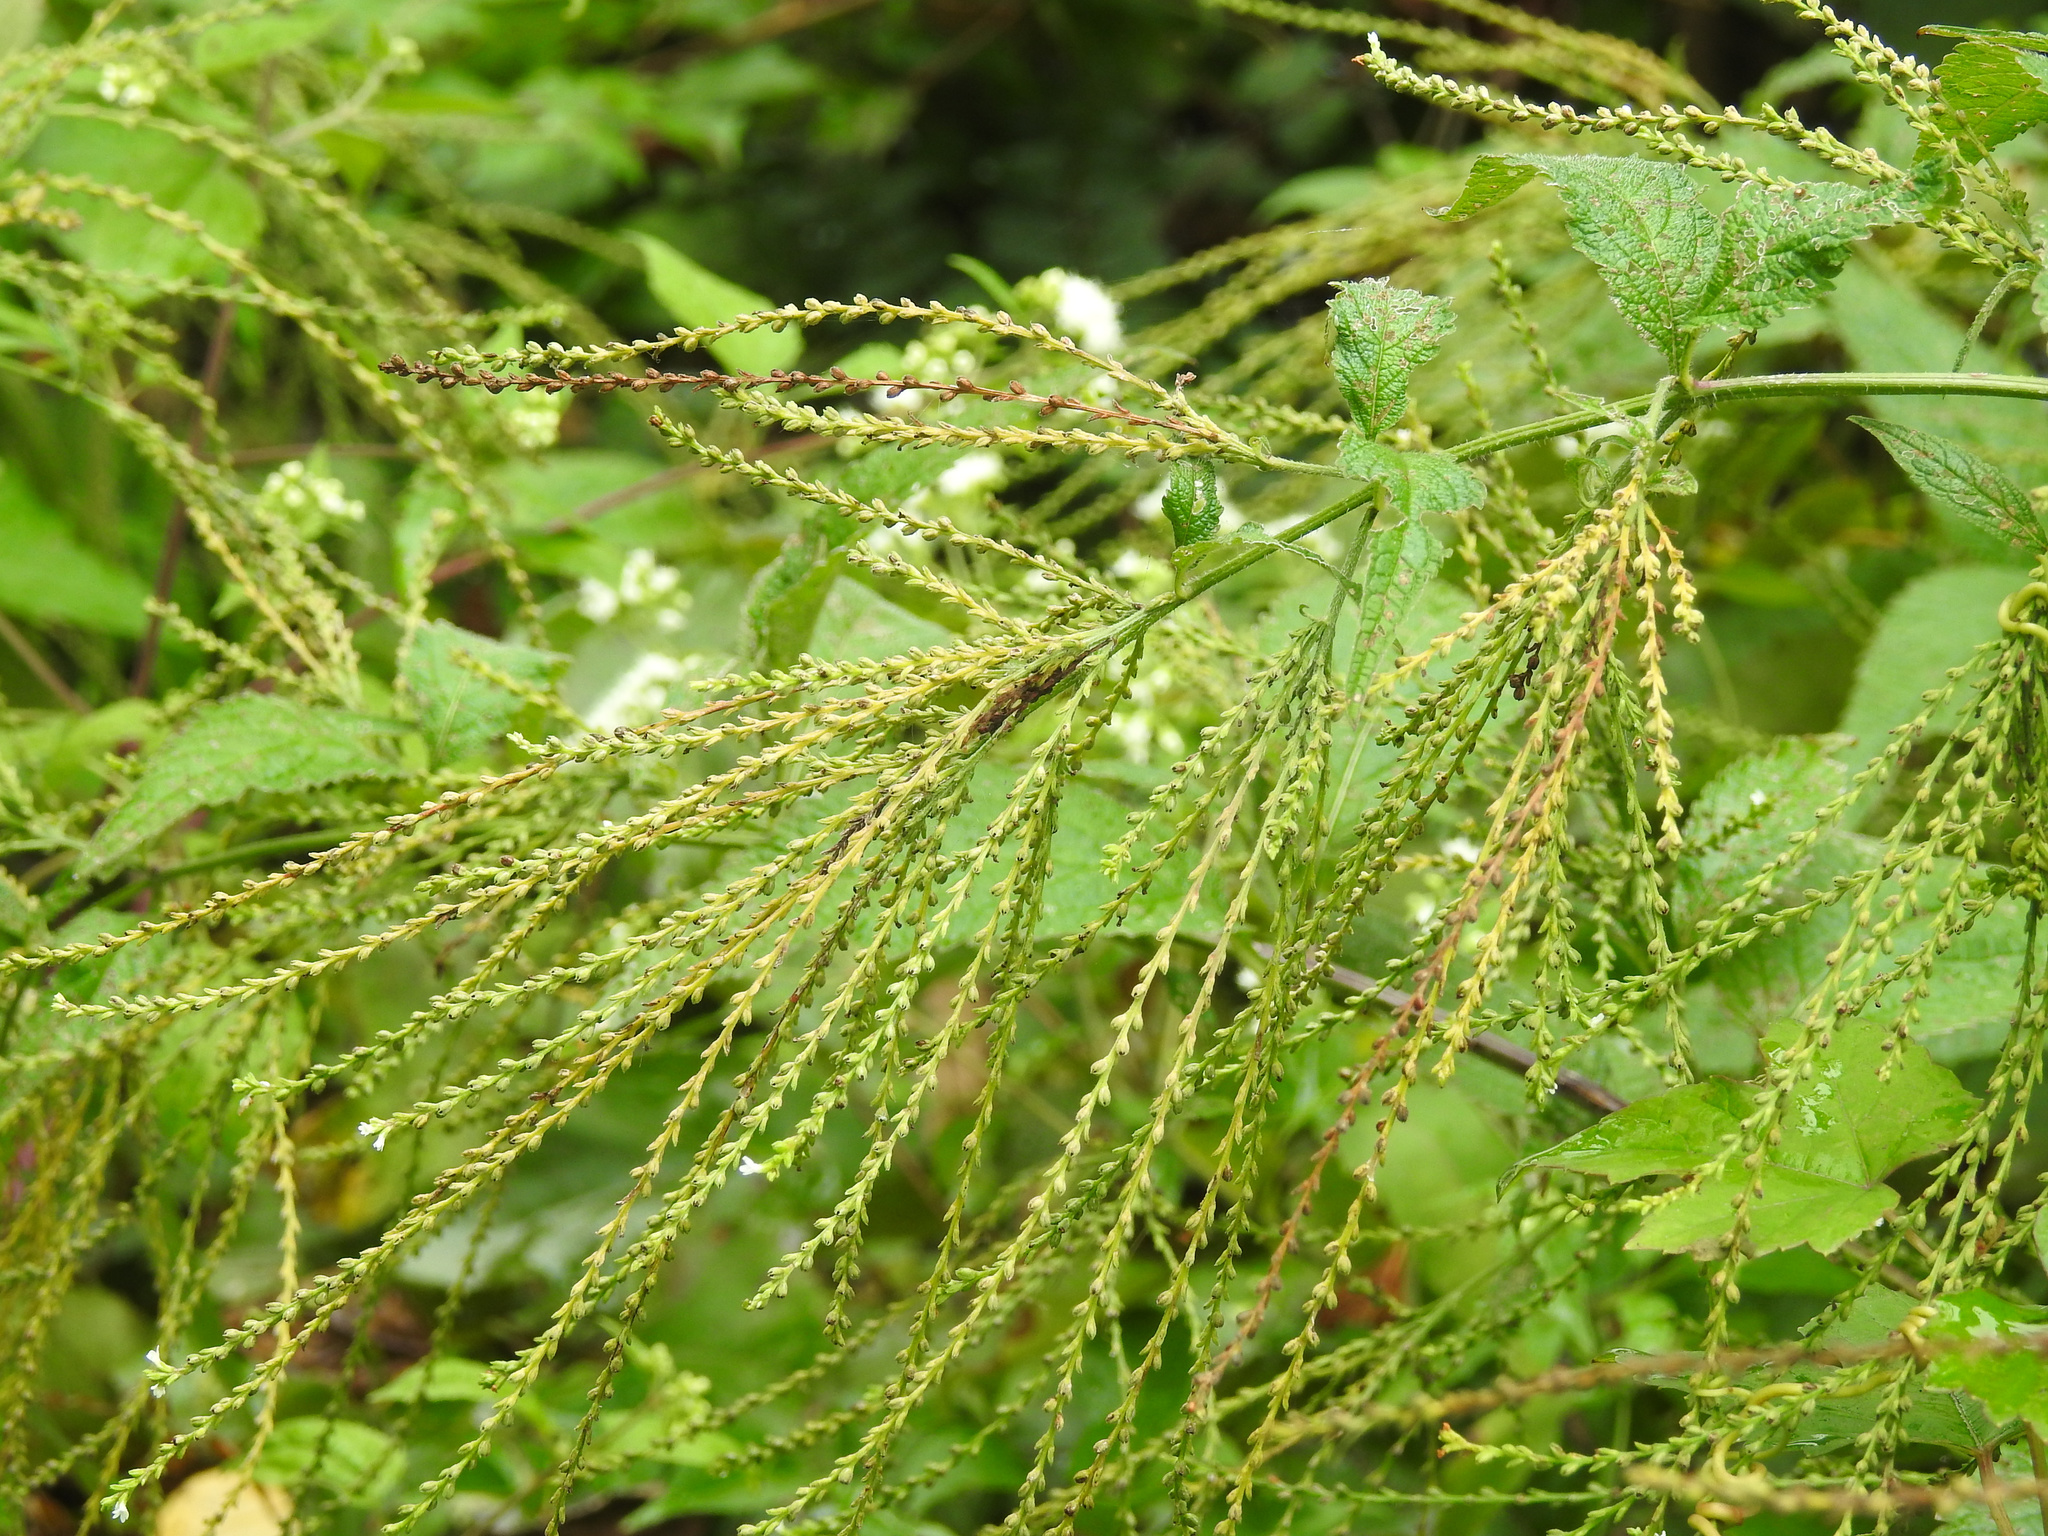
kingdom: Plantae
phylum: Tracheophyta
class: Magnoliopsida
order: Lamiales
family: Verbenaceae
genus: Verbena
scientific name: Verbena urticifolia
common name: Nettle-leaved vervain
